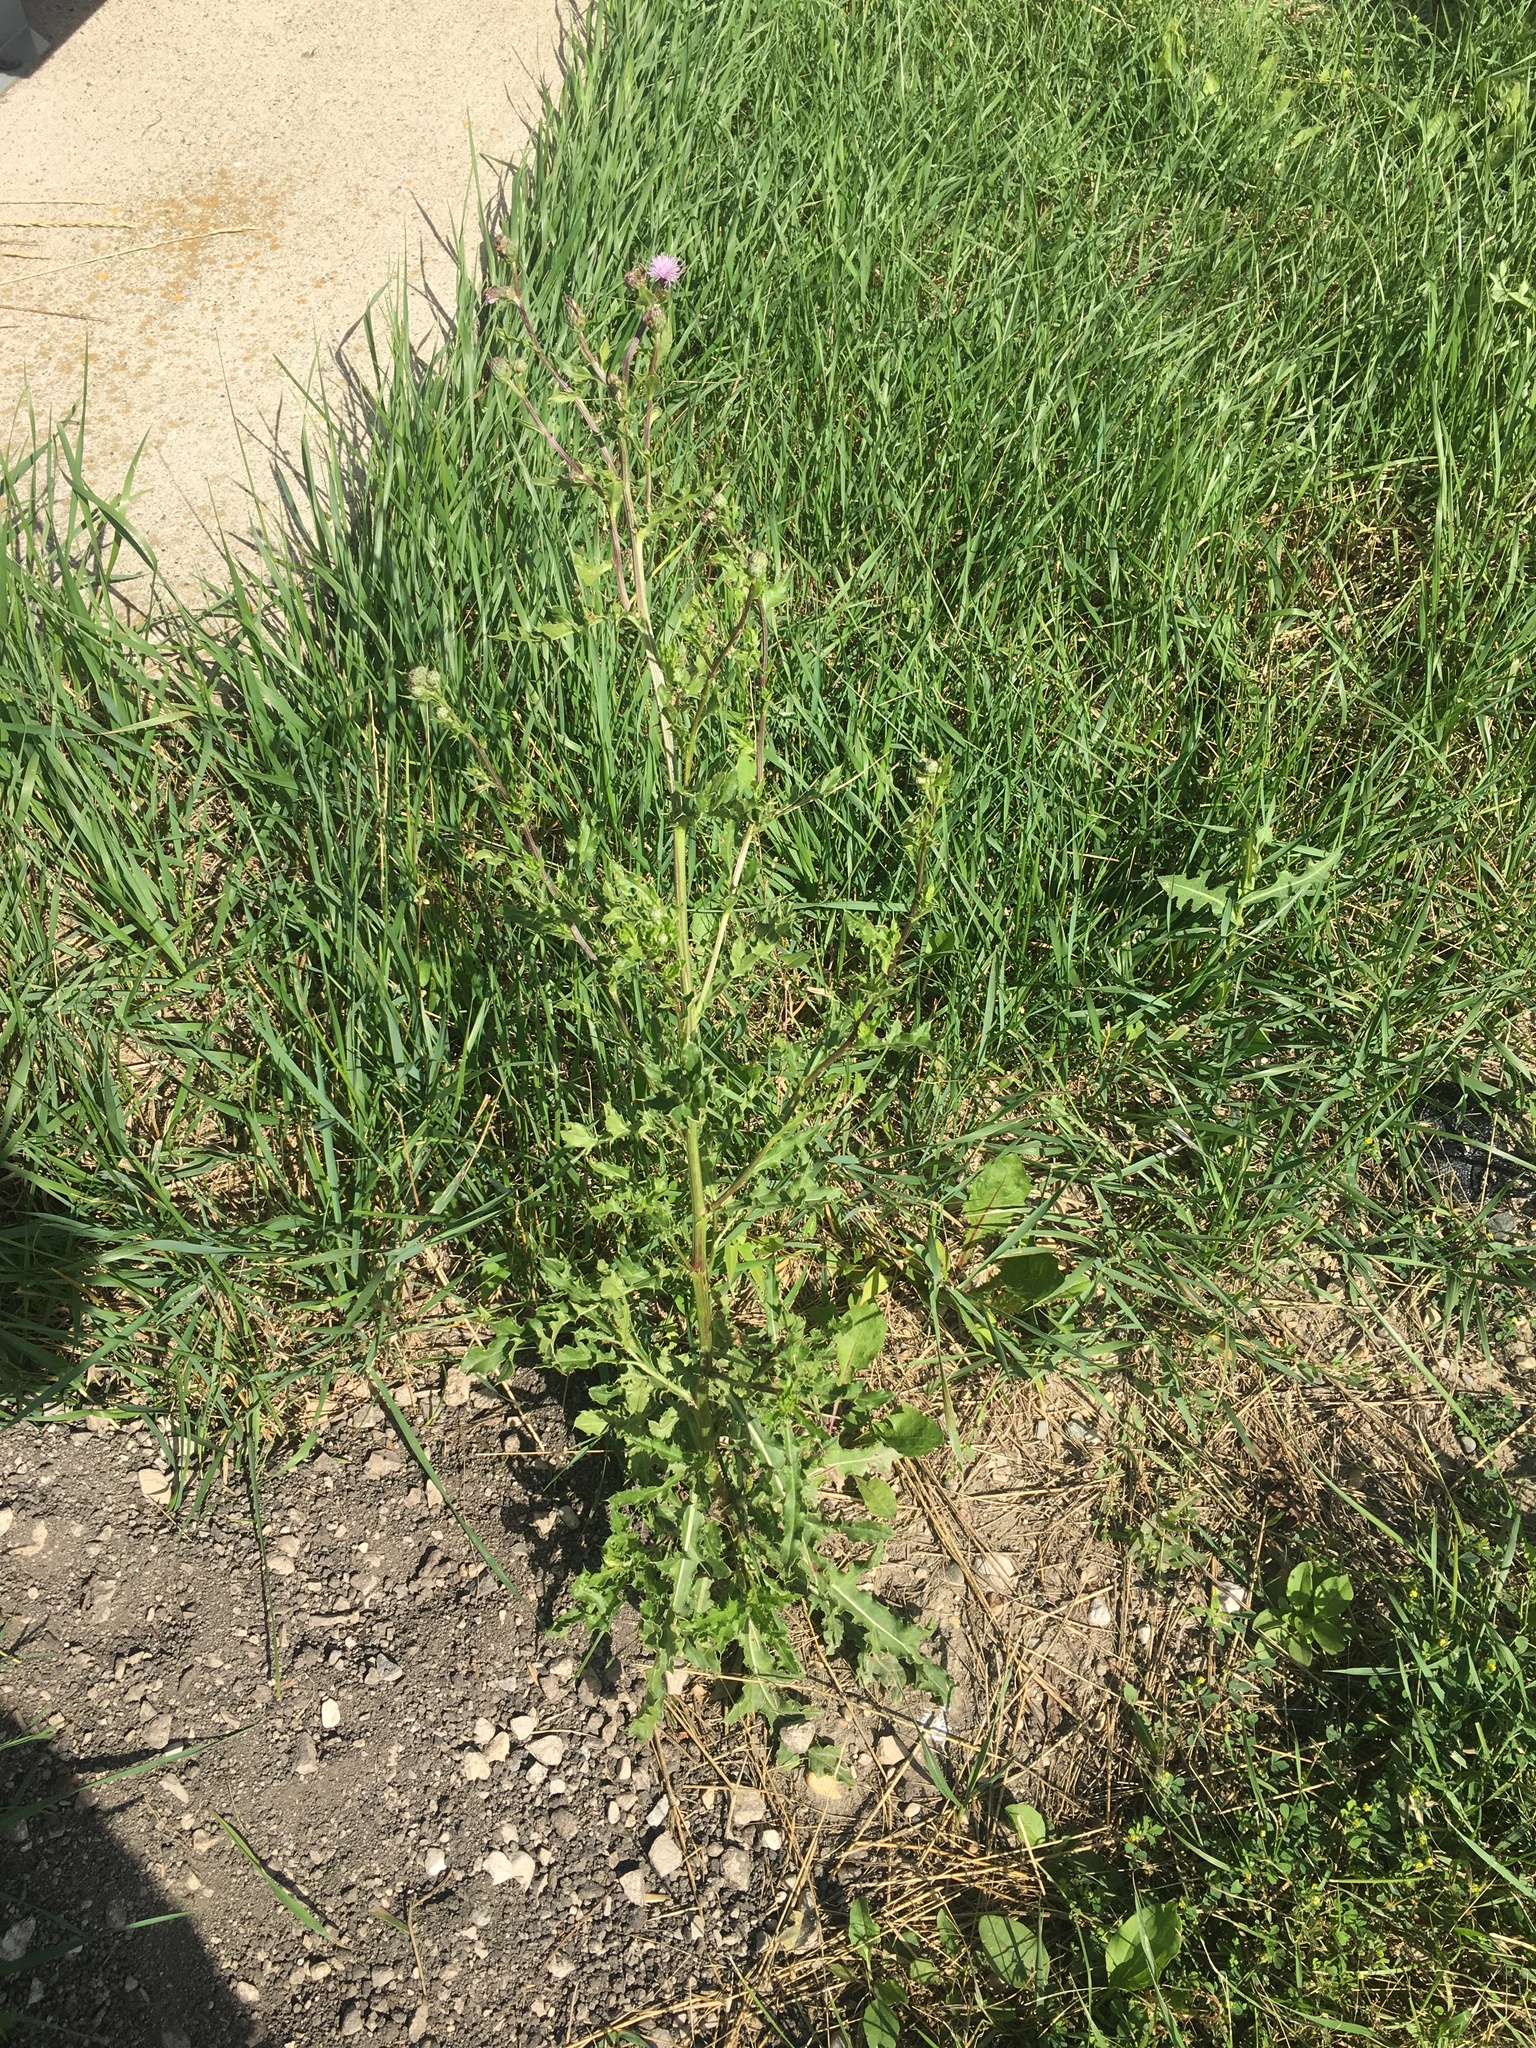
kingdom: Plantae
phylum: Tracheophyta
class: Magnoliopsida
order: Asterales
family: Asteraceae
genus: Cirsium
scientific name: Cirsium arvense
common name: Creeping thistle
